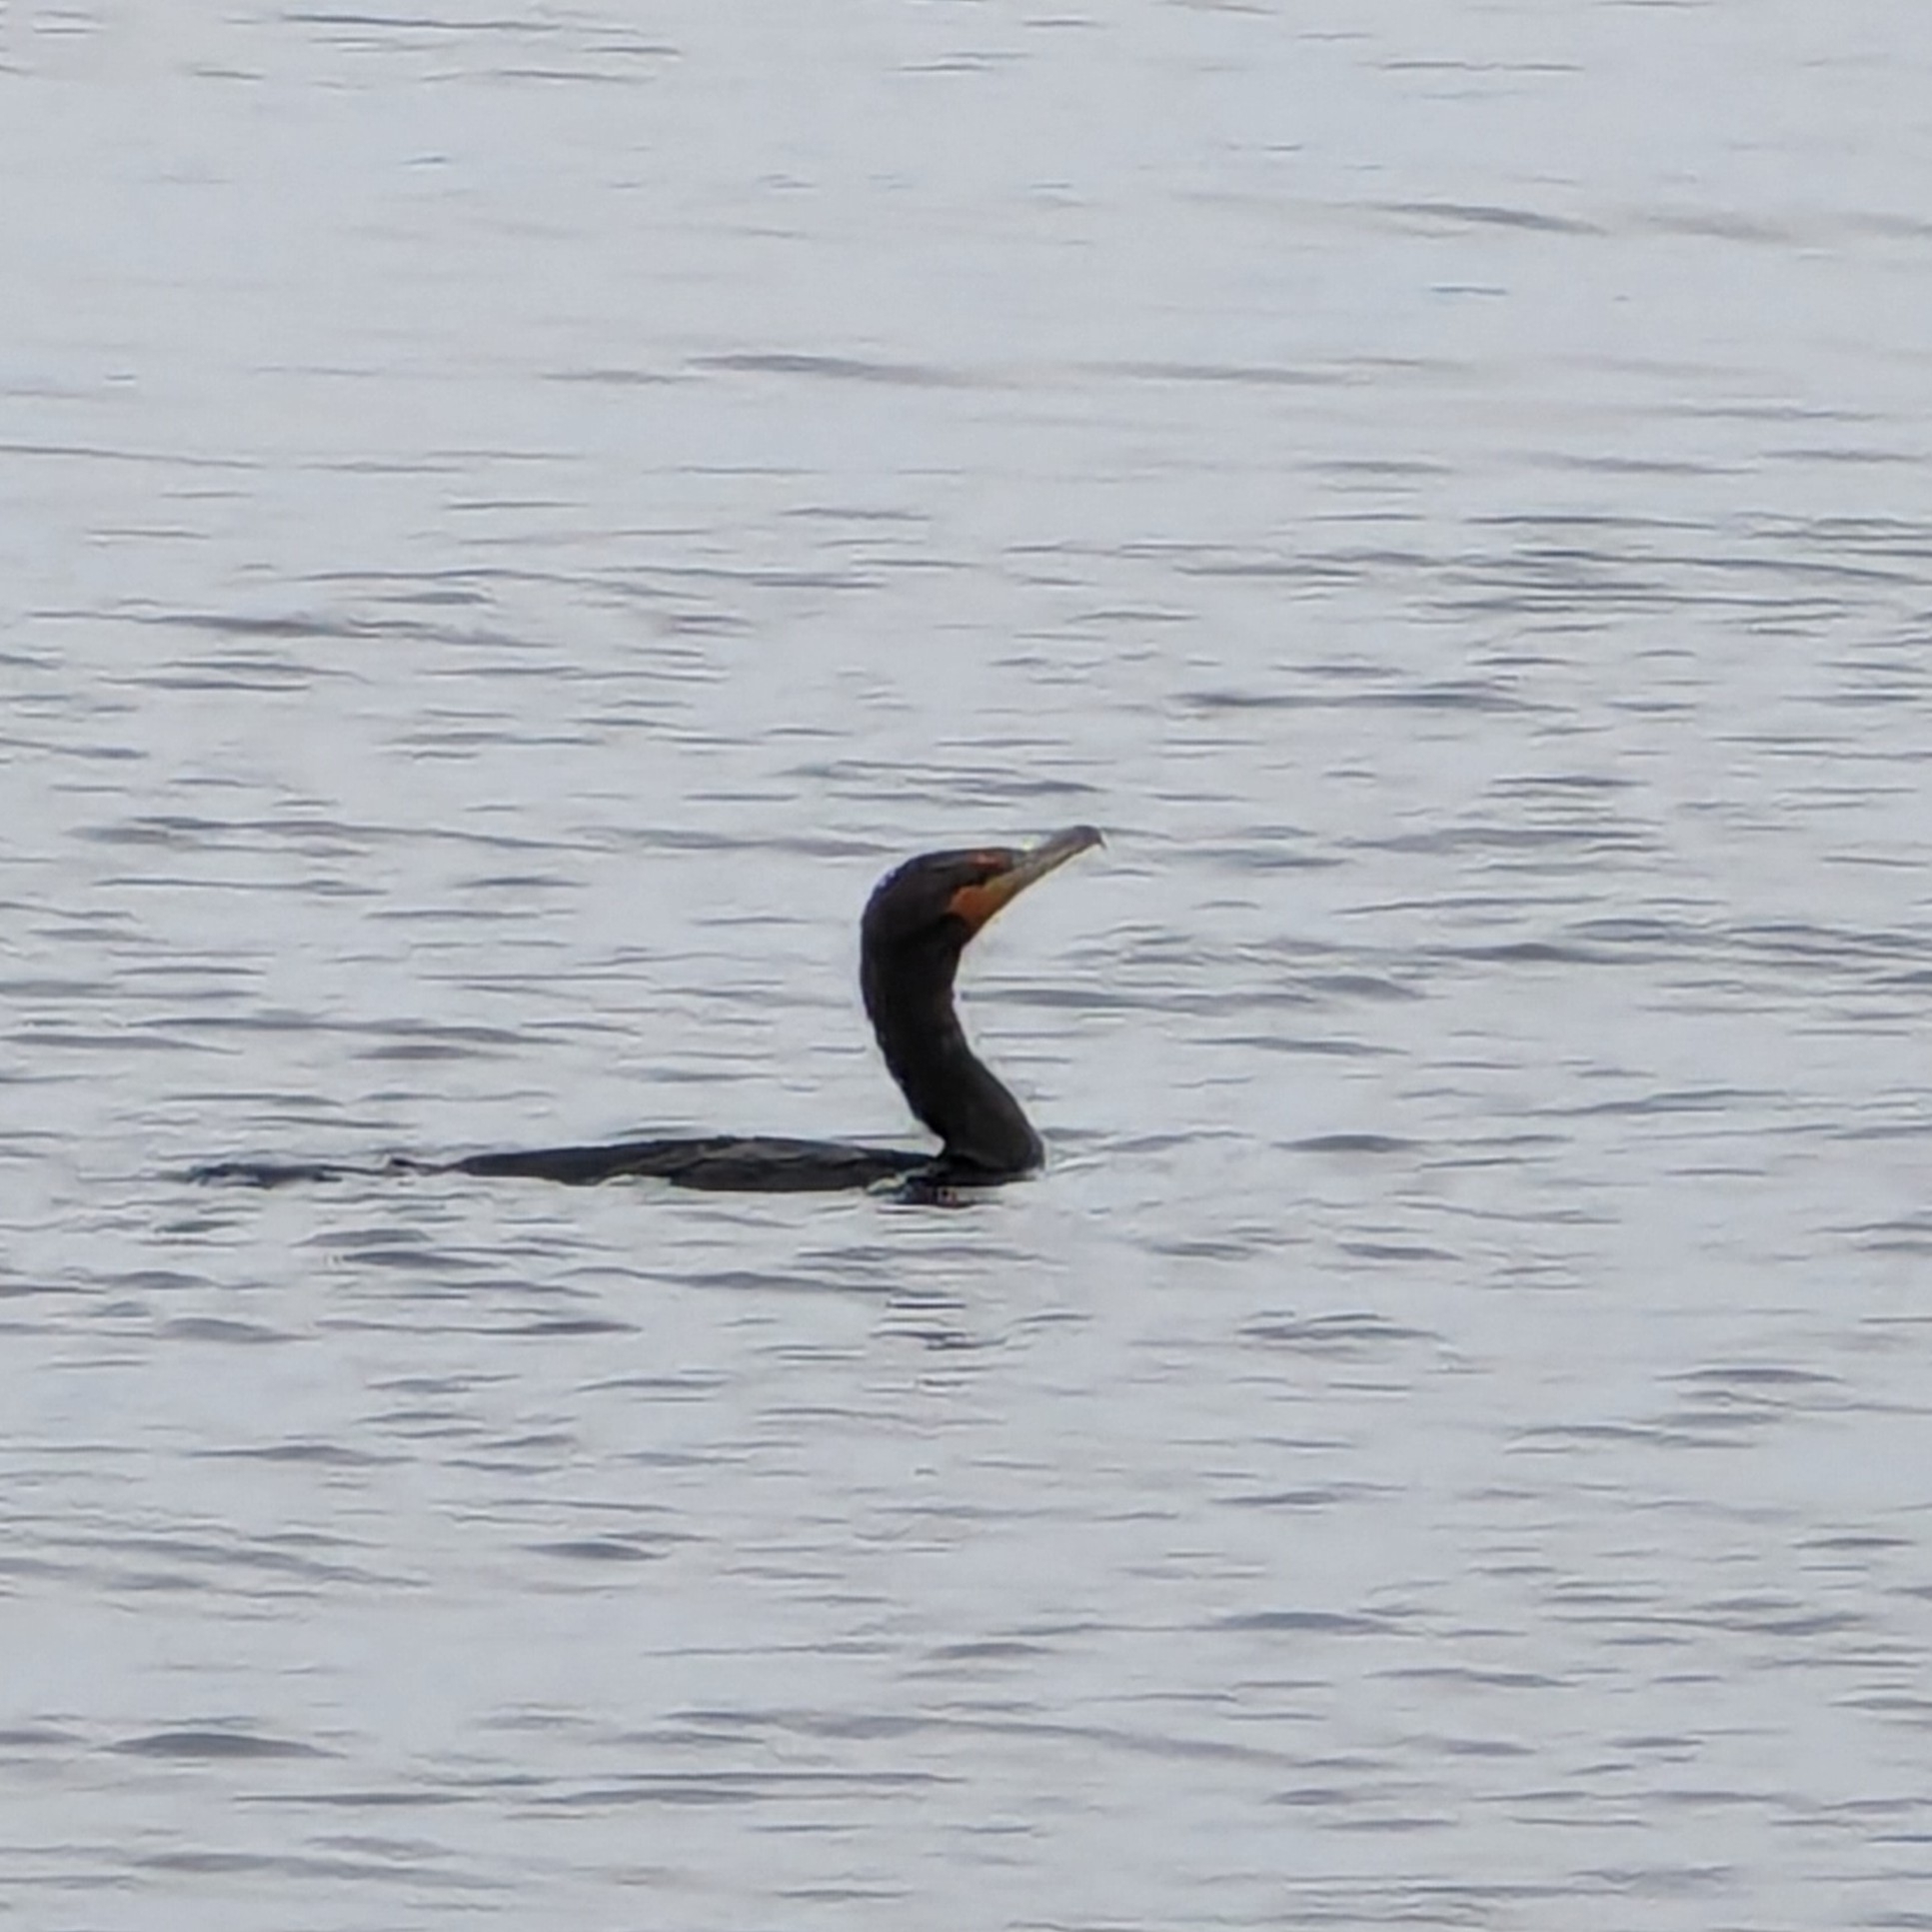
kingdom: Animalia
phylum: Chordata
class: Aves
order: Suliformes
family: Phalacrocoracidae
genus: Phalacrocorax
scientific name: Phalacrocorax auritus
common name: Double-crested cormorant
